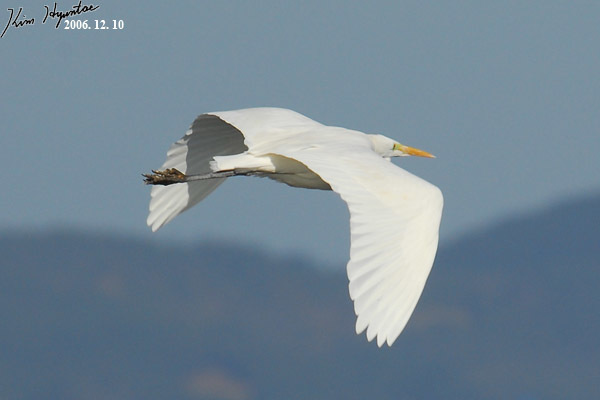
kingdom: Animalia
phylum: Chordata
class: Aves
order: Pelecaniformes
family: Ardeidae
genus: Ardea
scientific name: Ardea alba
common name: Great egret
